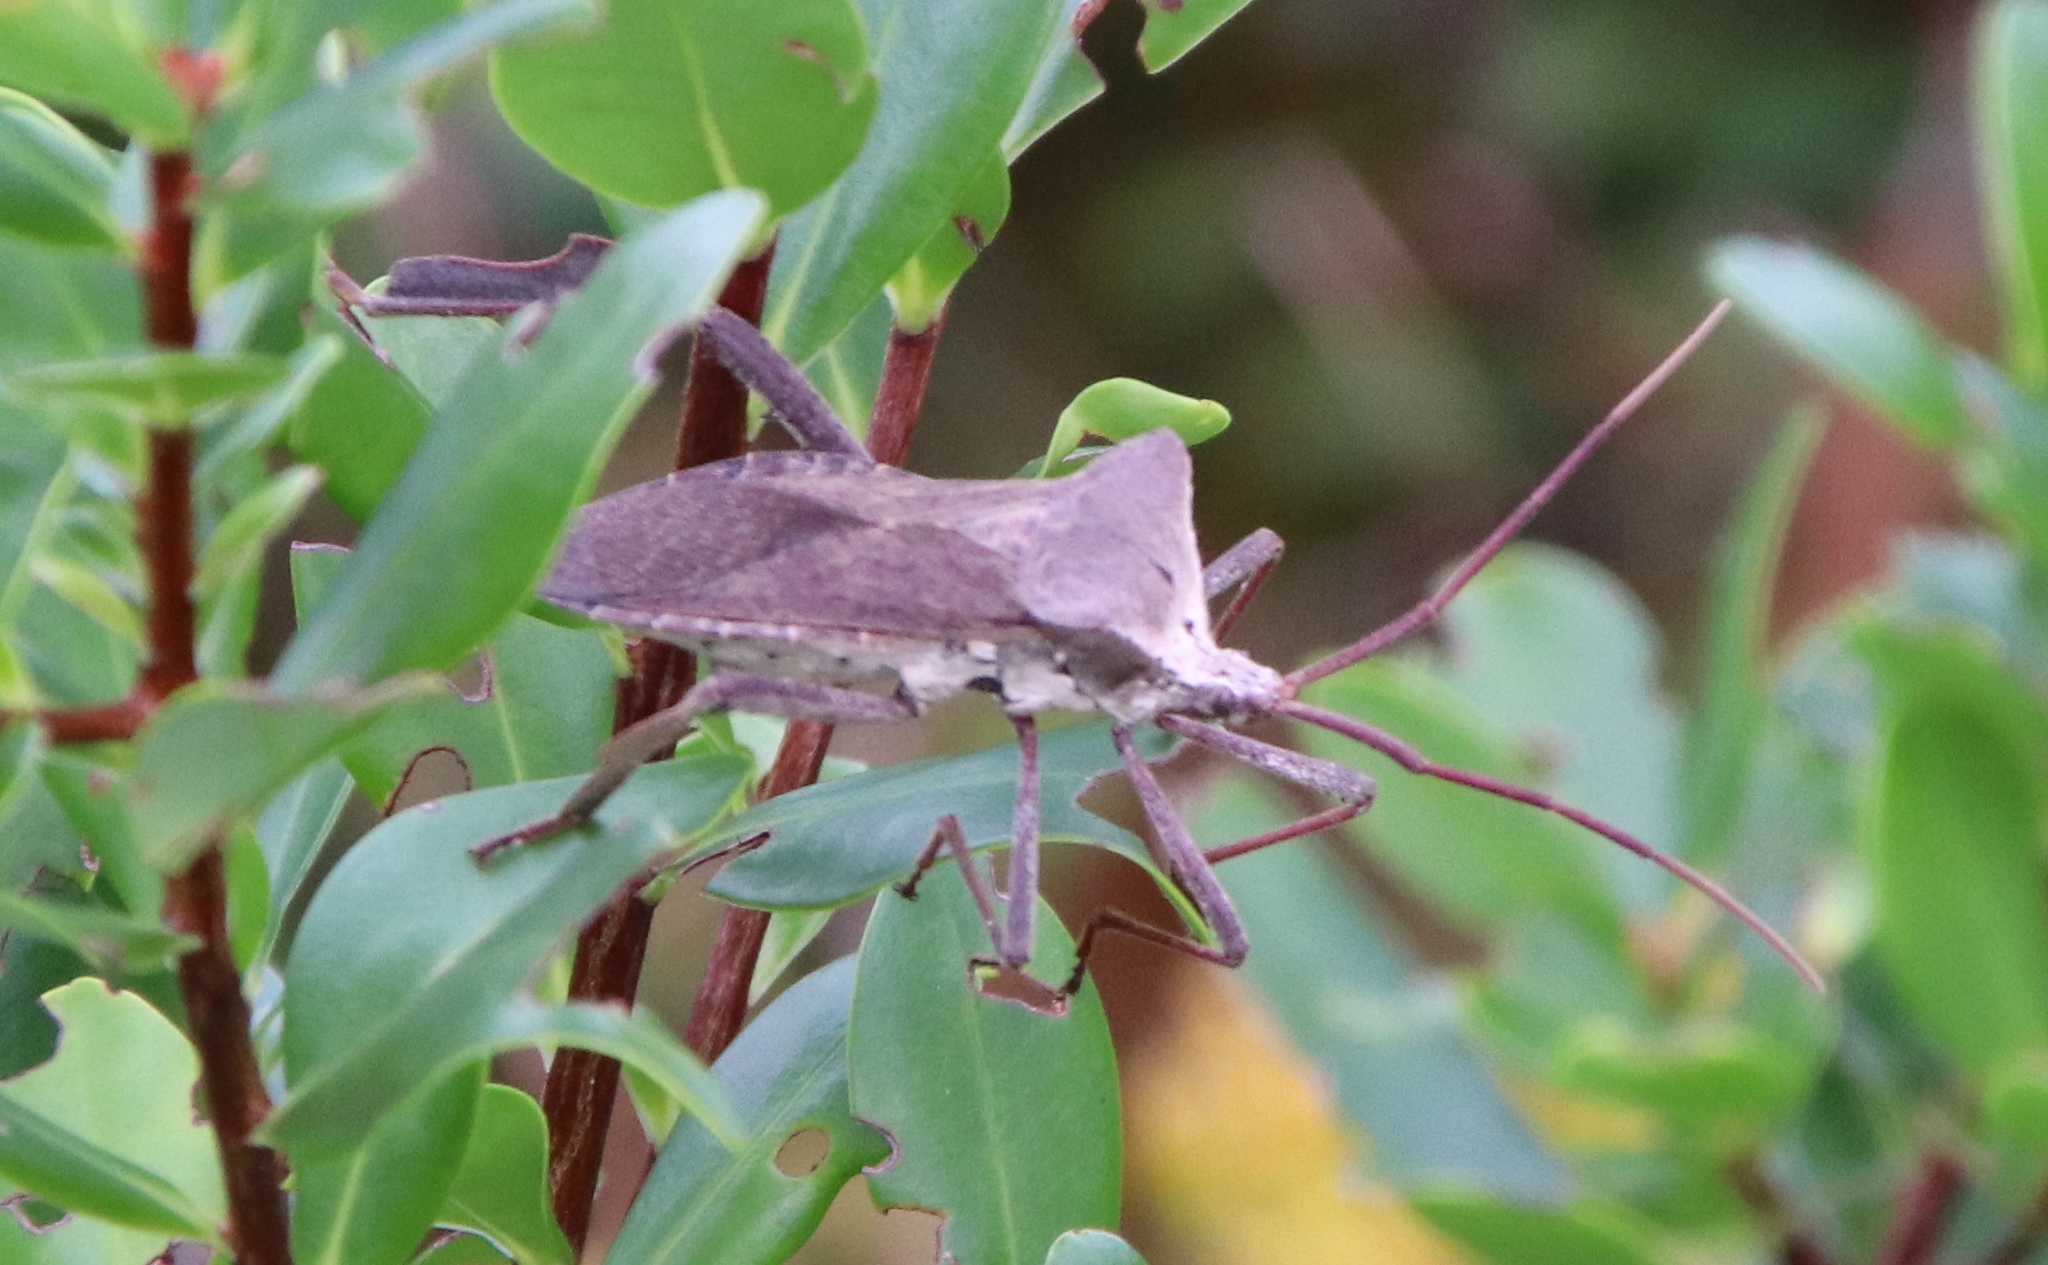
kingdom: Animalia
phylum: Arthropoda
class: Insecta
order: Hemiptera
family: Coreidae
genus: Acanthocephala
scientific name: Acanthocephala declivis
